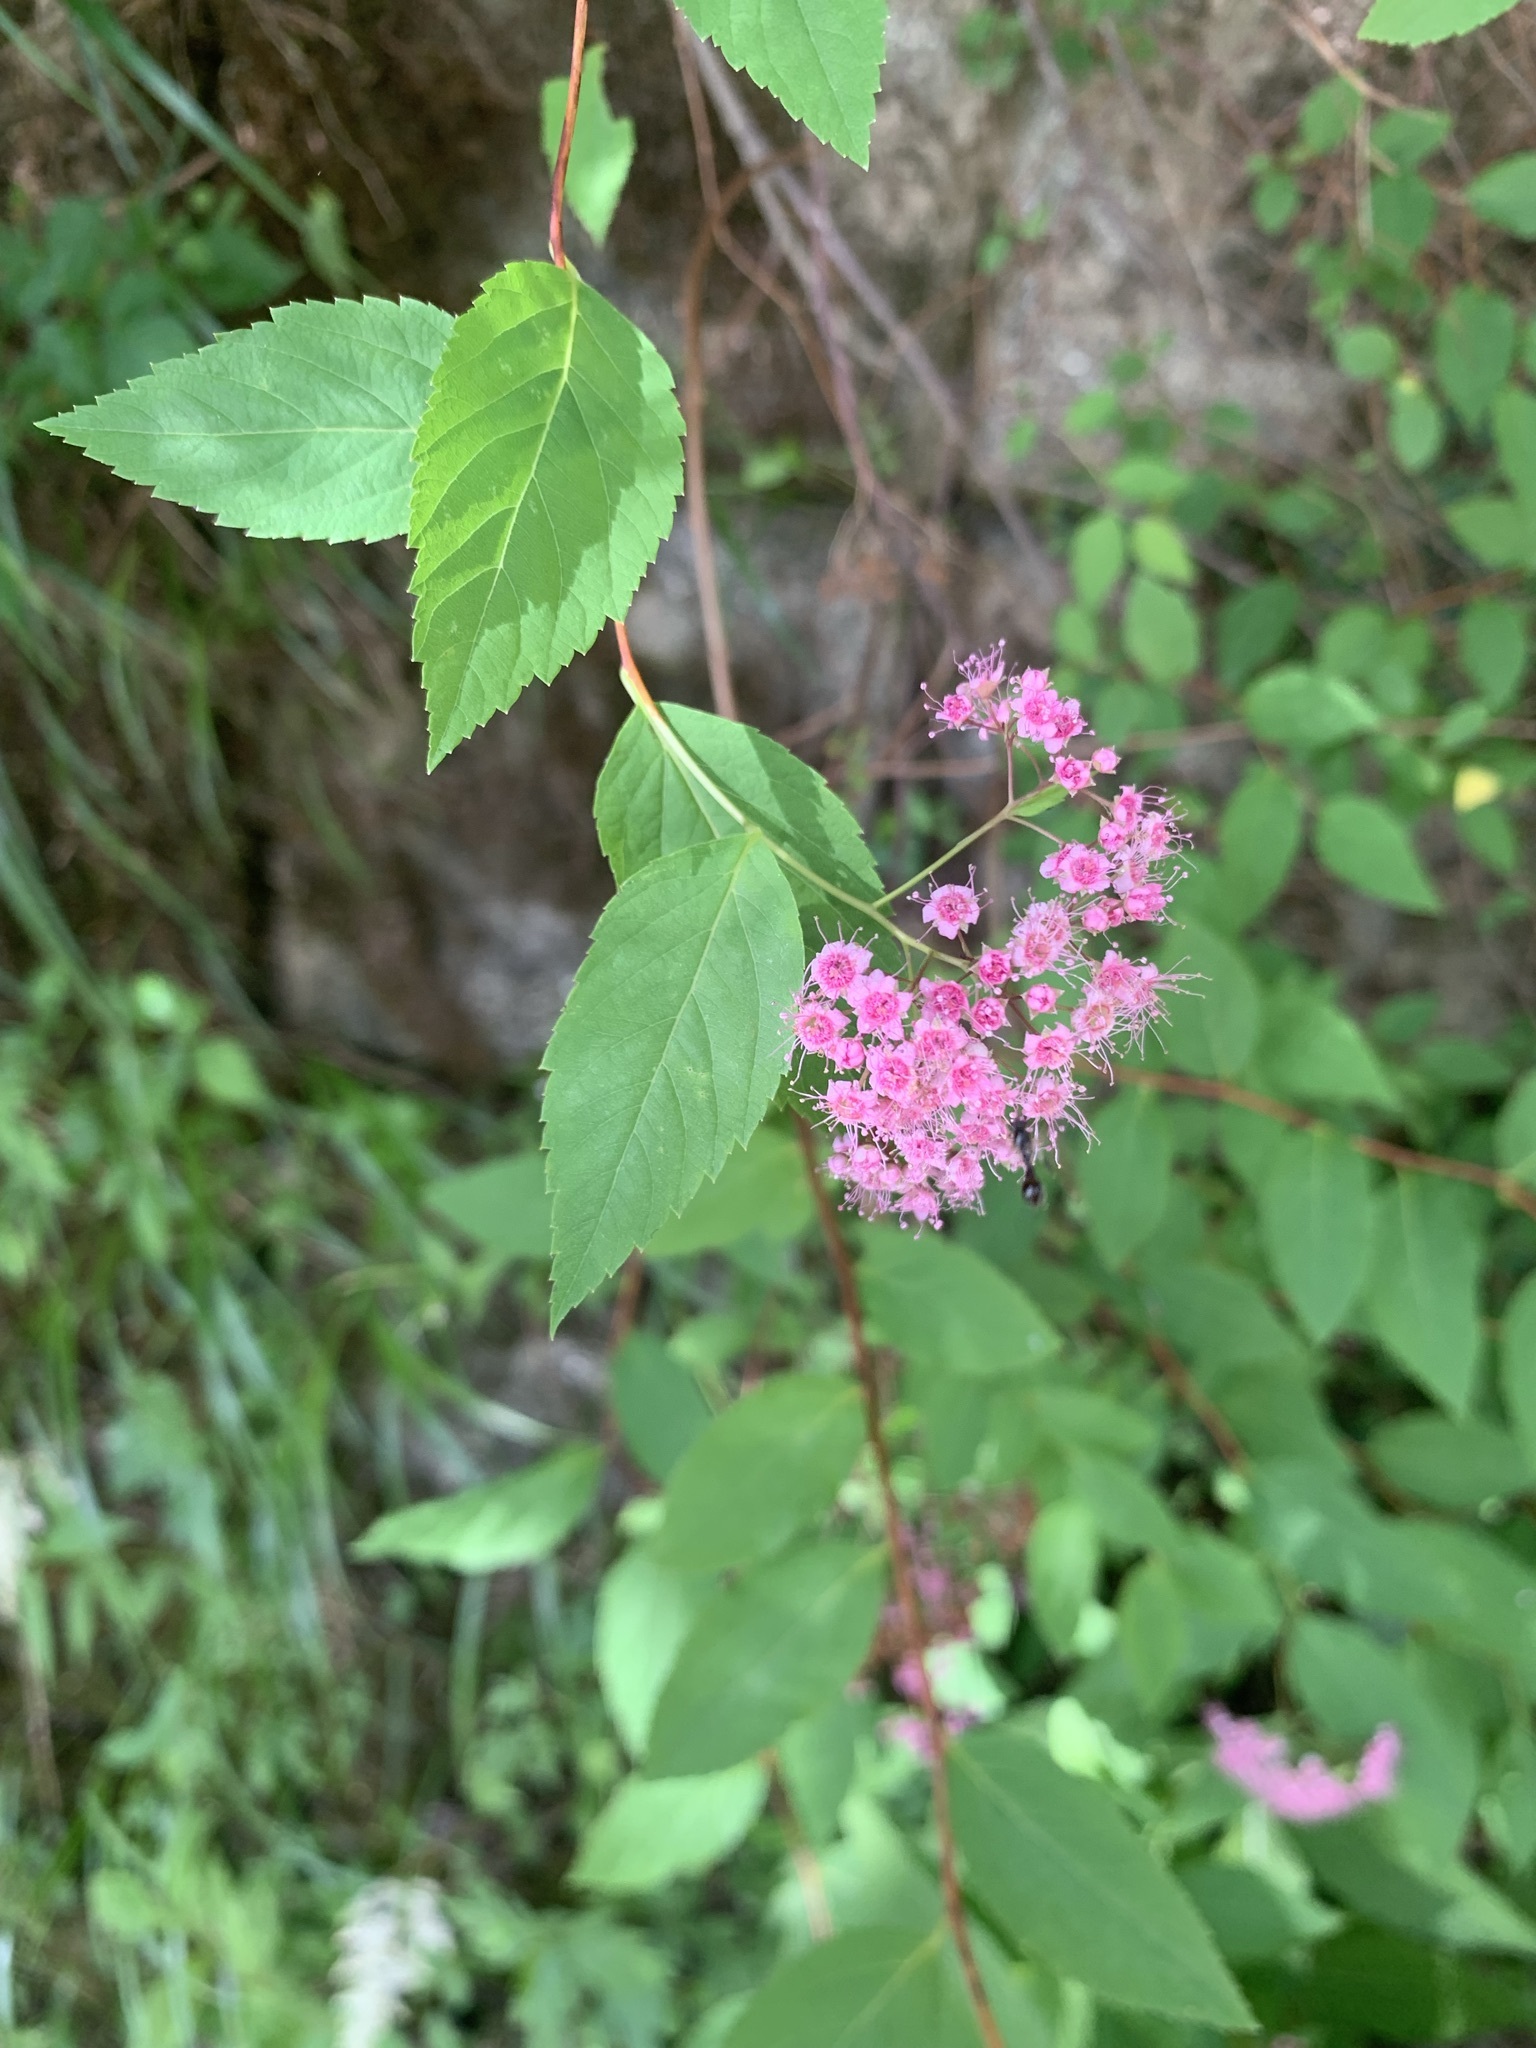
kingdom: Plantae
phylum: Tracheophyta
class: Magnoliopsida
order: Rosales
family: Rosaceae
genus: Spiraea
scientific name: Spiraea japonica
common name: Japanese spiraea
